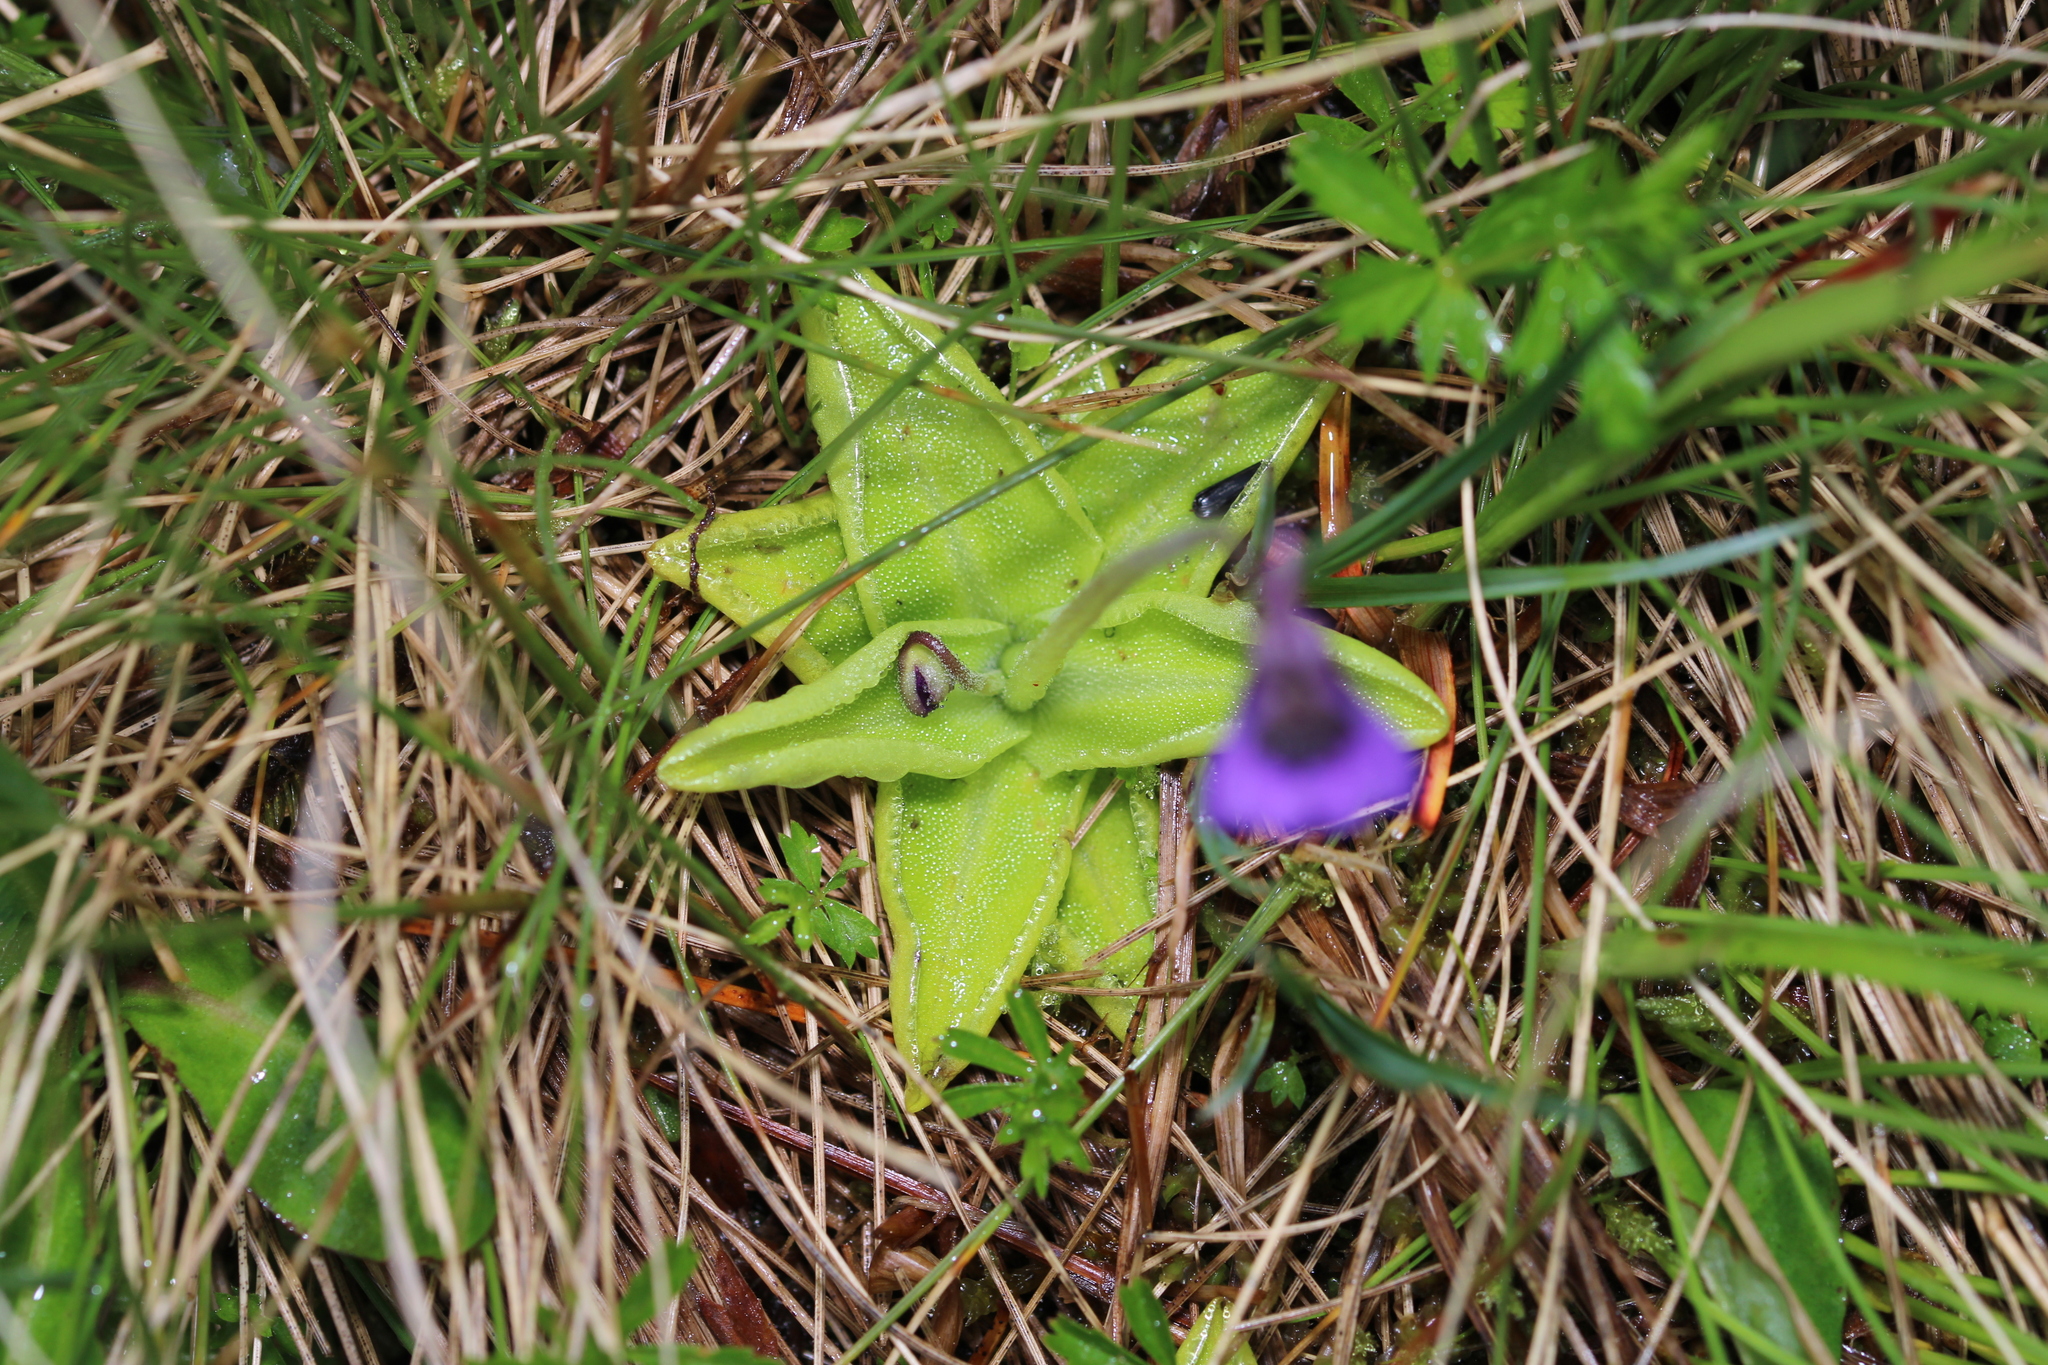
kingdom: Plantae
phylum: Tracheophyta
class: Magnoliopsida
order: Lamiales
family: Lentibulariaceae
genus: Pinguicula
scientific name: Pinguicula vulgaris
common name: Common butterwort
